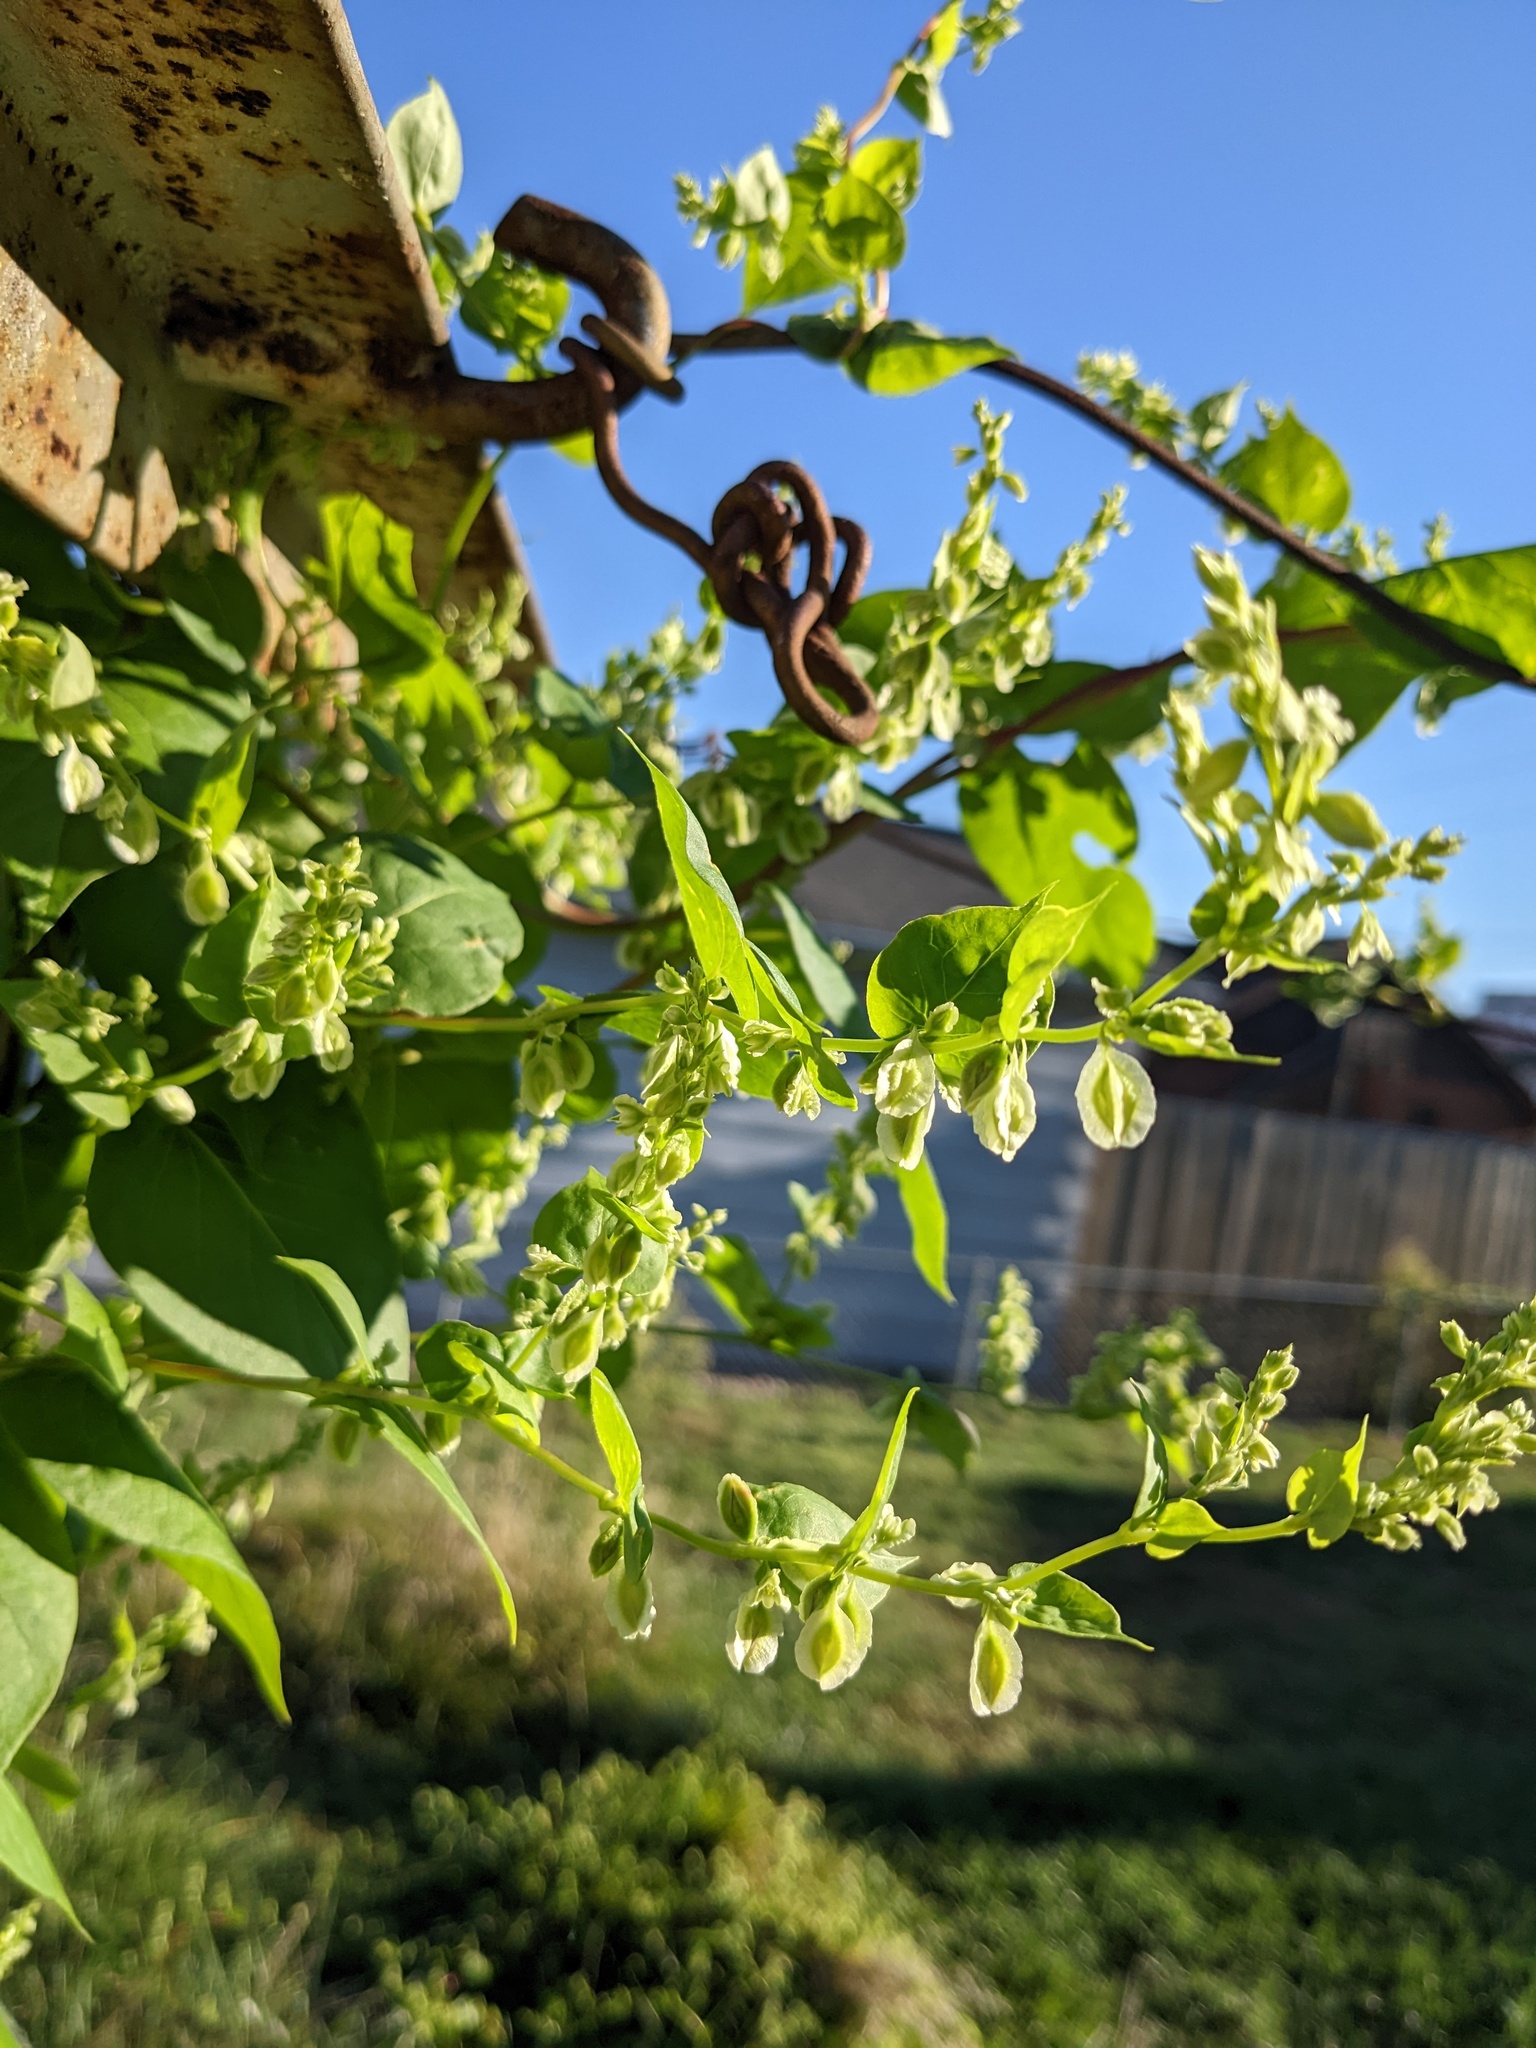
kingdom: Plantae
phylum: Tracheophyta
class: Magnoliopsida
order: Caryophyllales
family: Polygonaceae
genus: Fallopia
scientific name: Fallopia scandens
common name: Climbing false buckwheat
